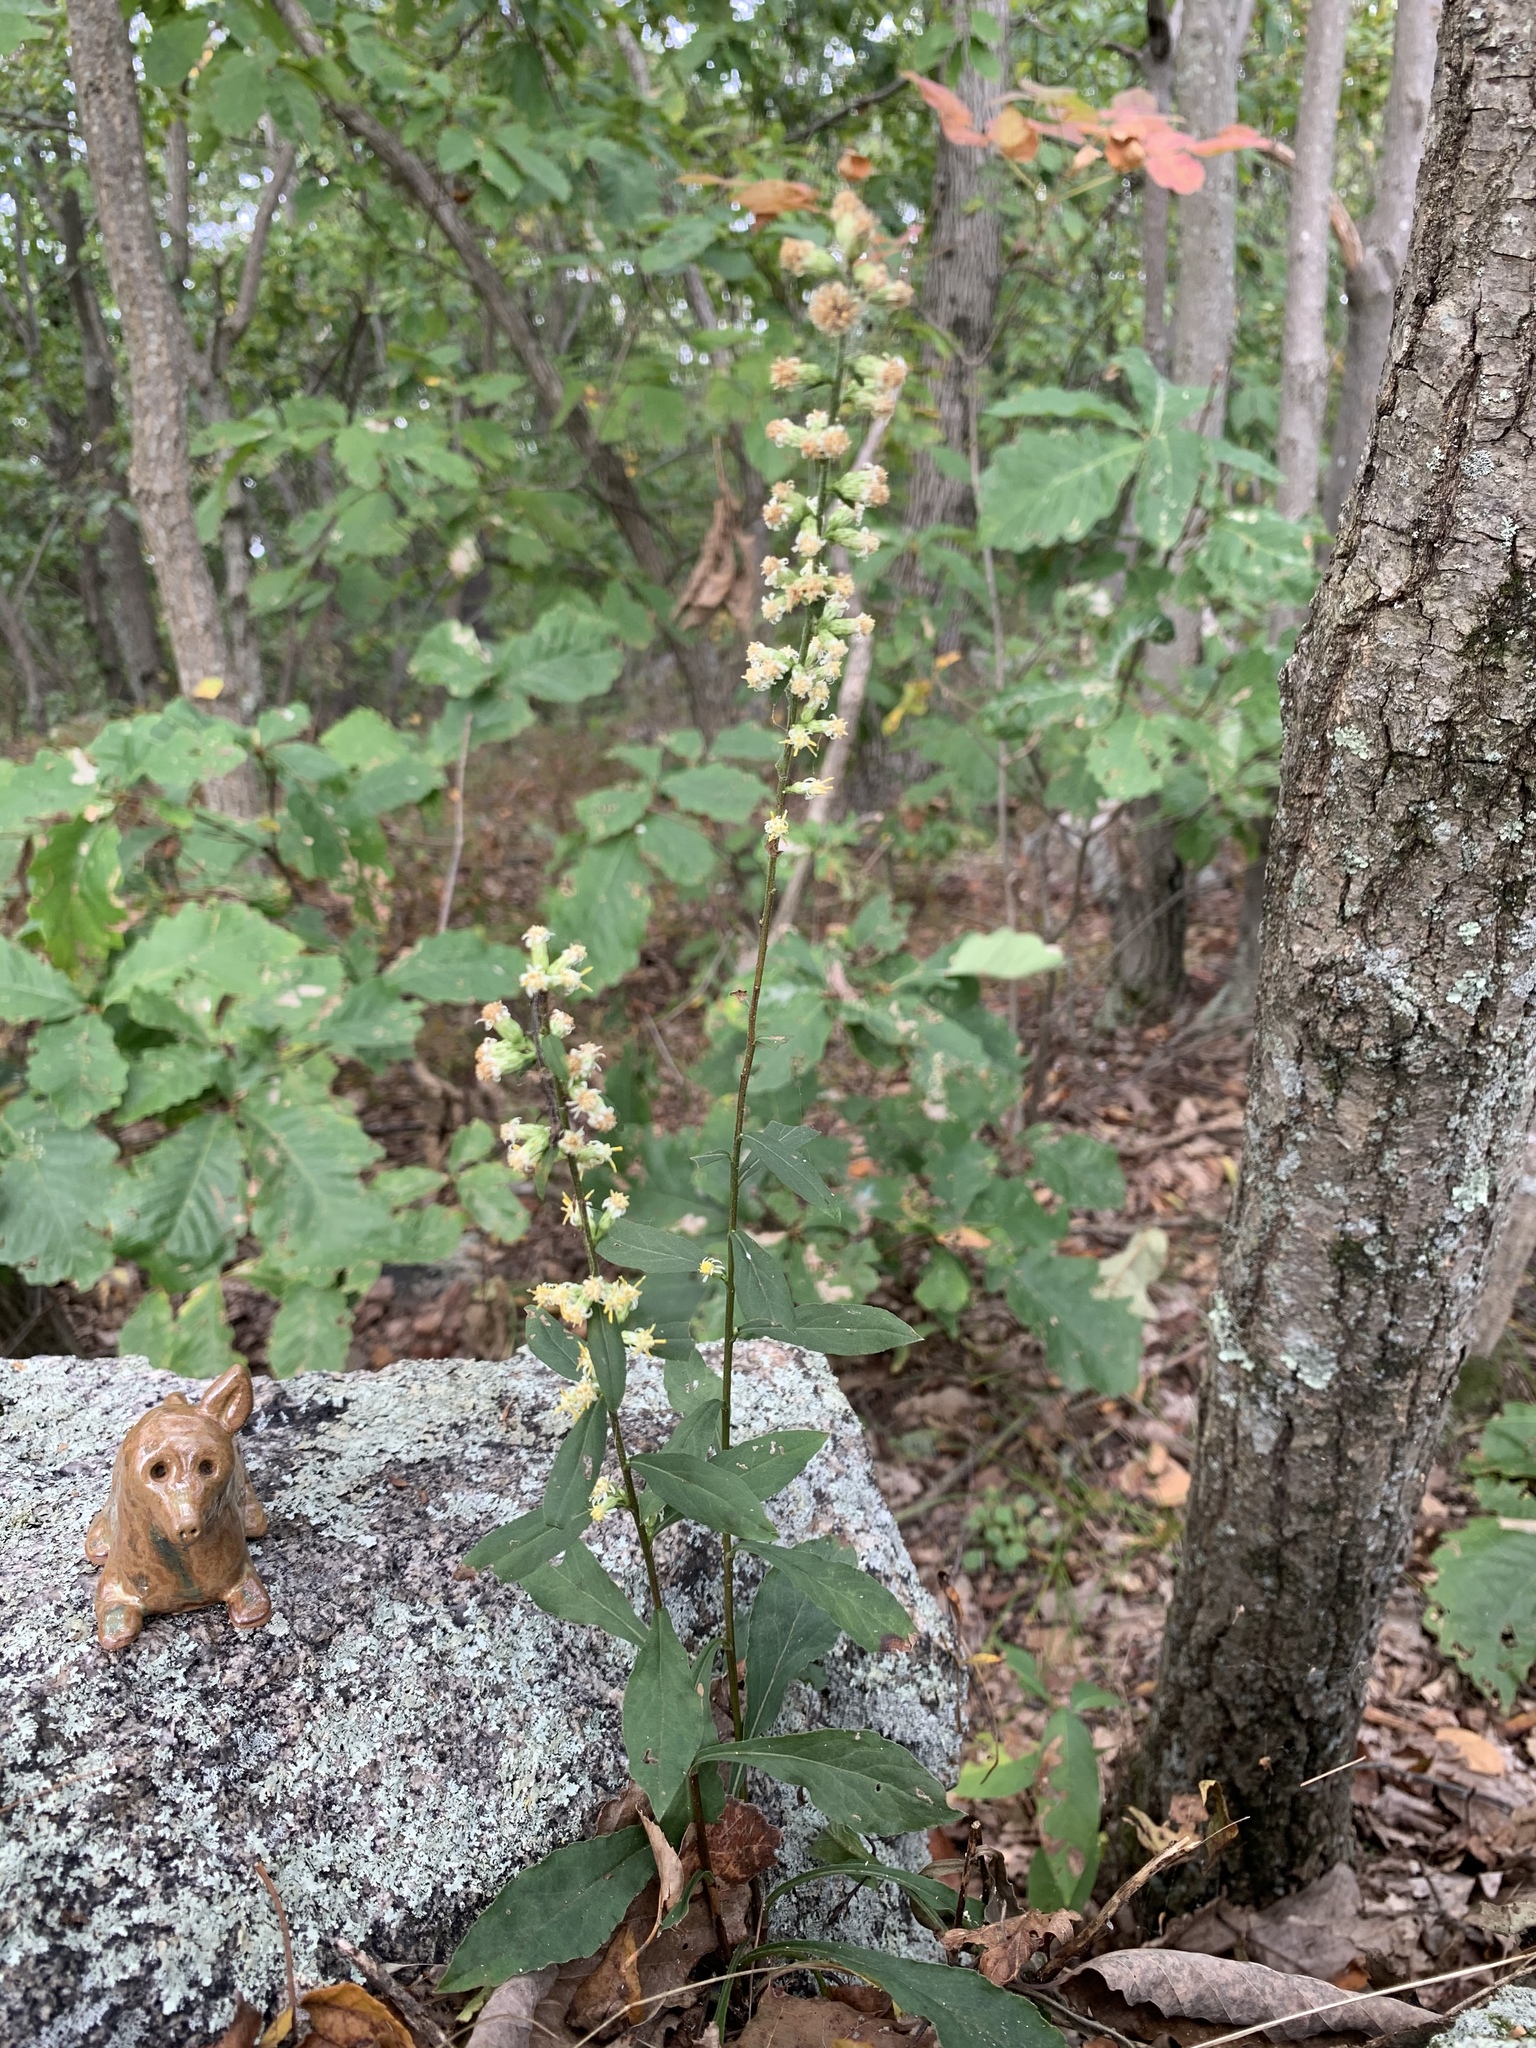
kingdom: Plantae
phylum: Tracheophyta
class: Magnoliopsida
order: Asterales
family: Asteraceae
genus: Solidago
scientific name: Solidago bicolor
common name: Silverrod
